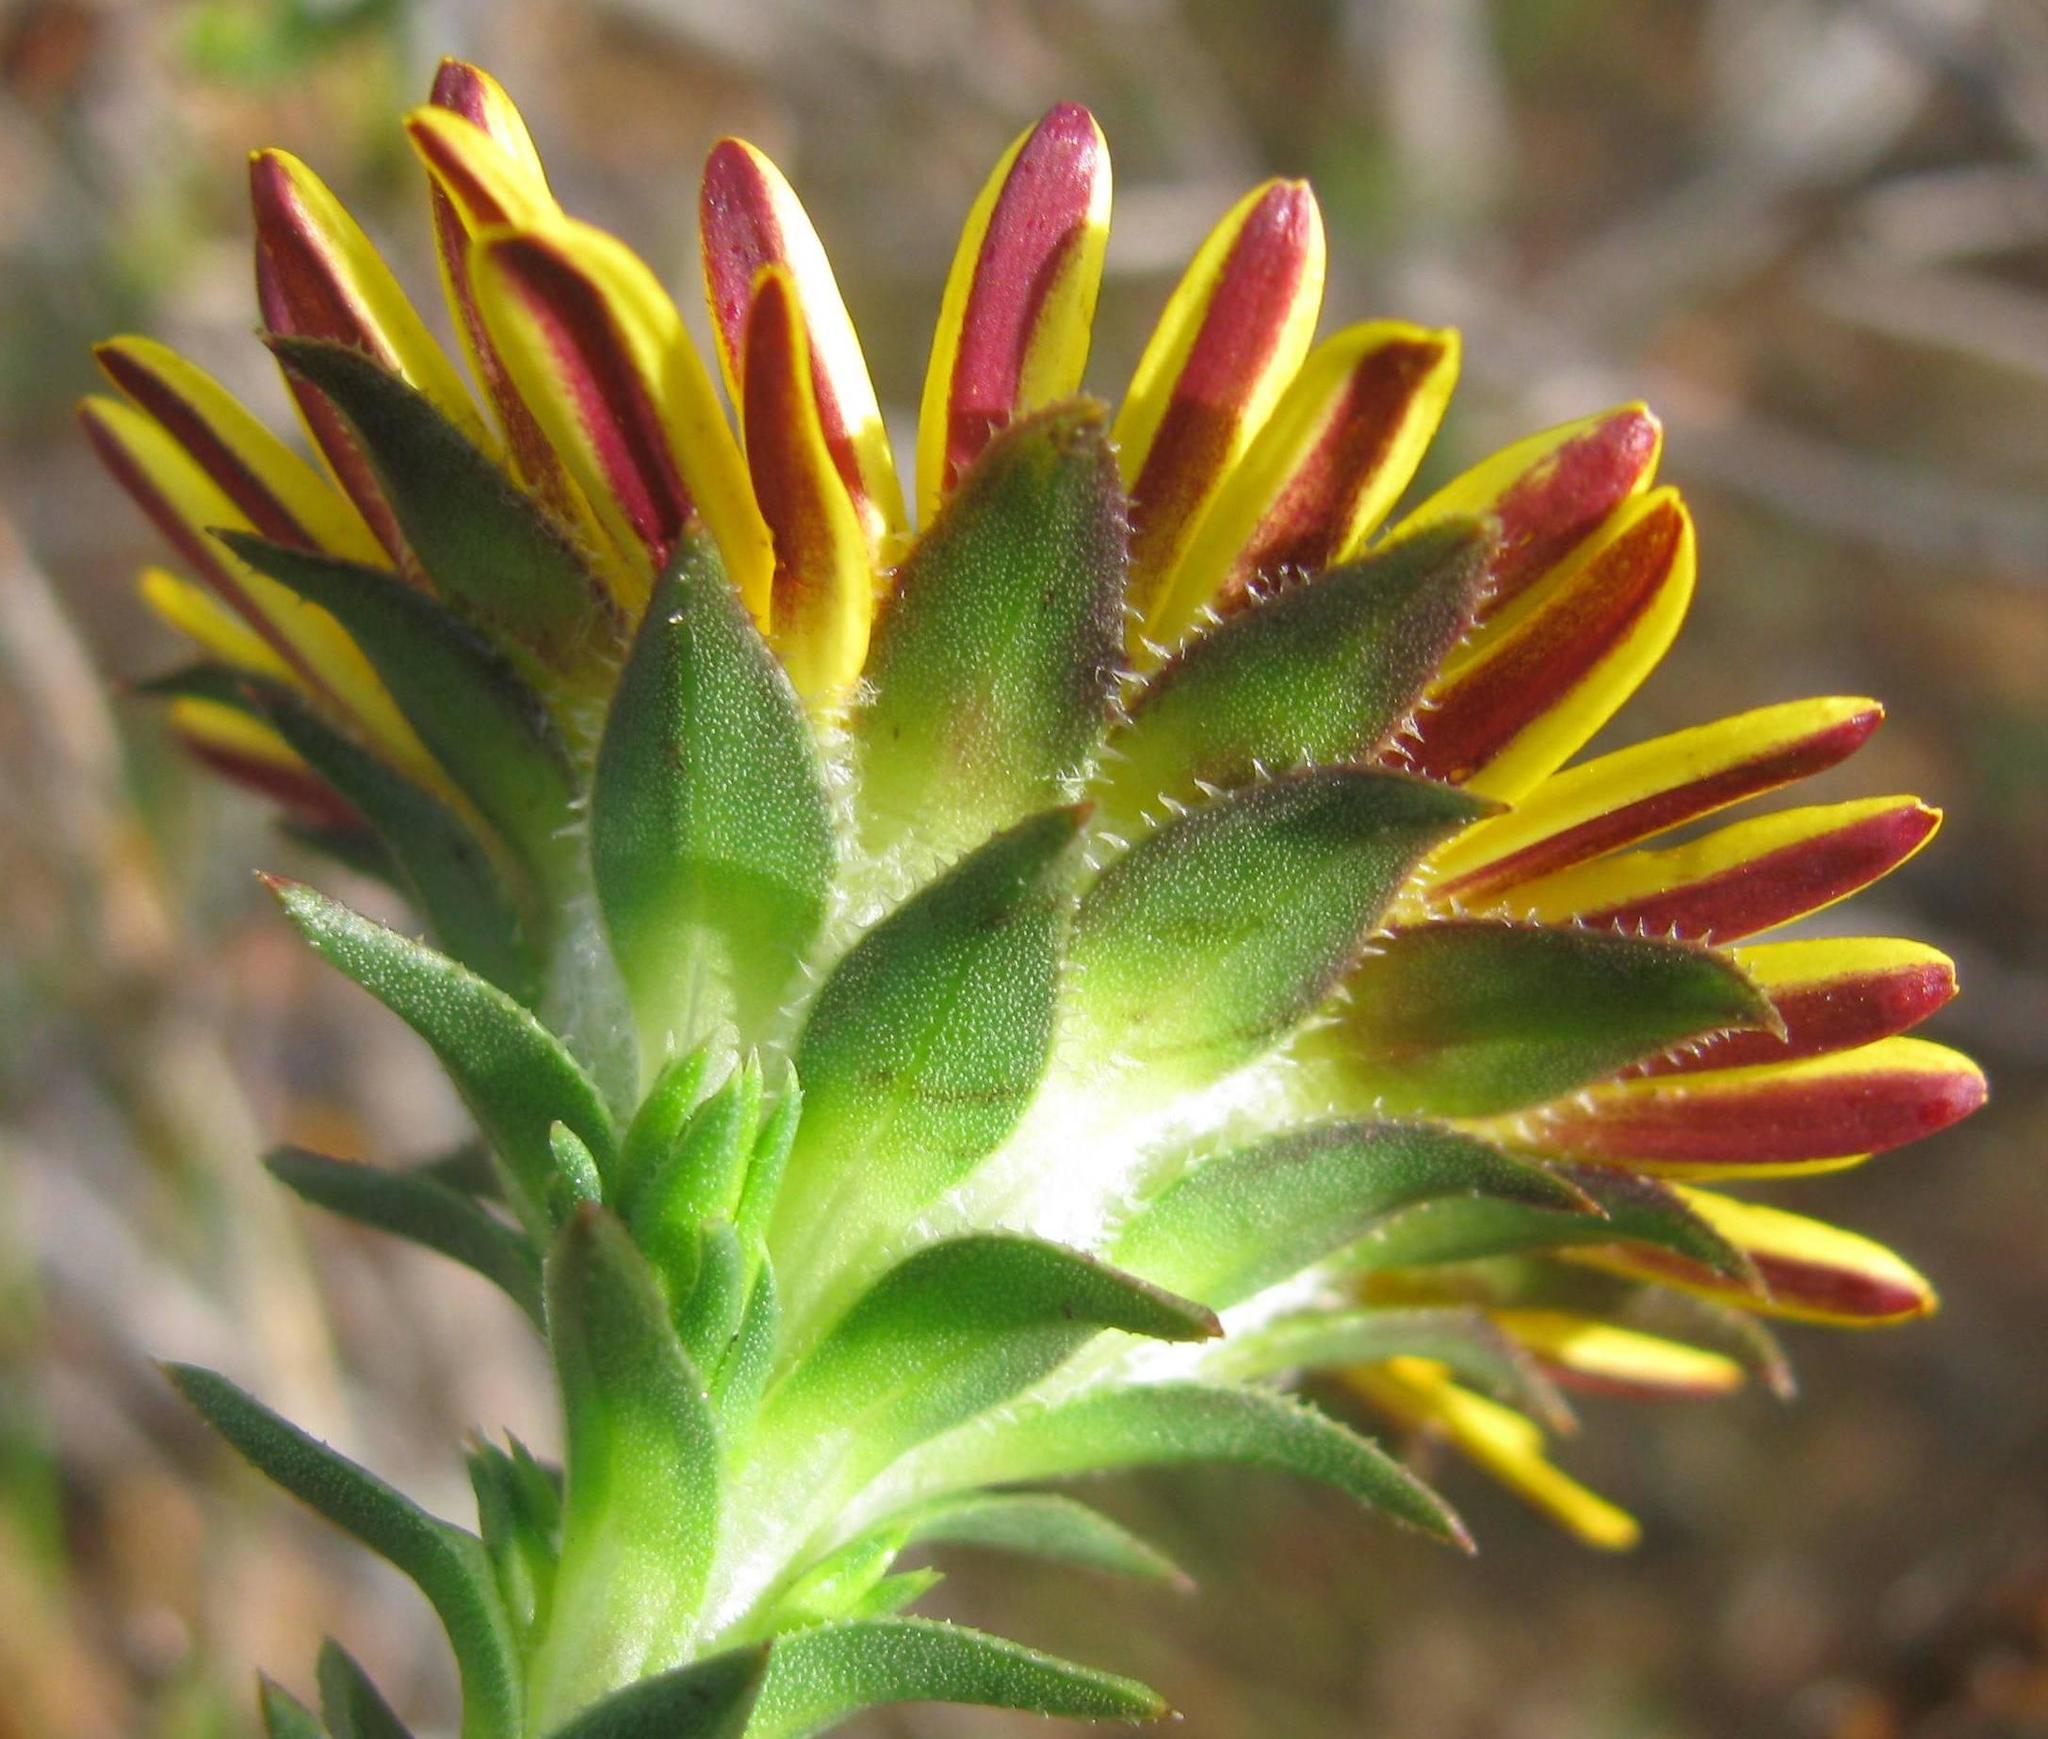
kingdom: Plantae
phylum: Tracheophyta
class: Magnoliopsida
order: Asterales
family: Asteraceae
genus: Oedera
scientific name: Oedera capensis
